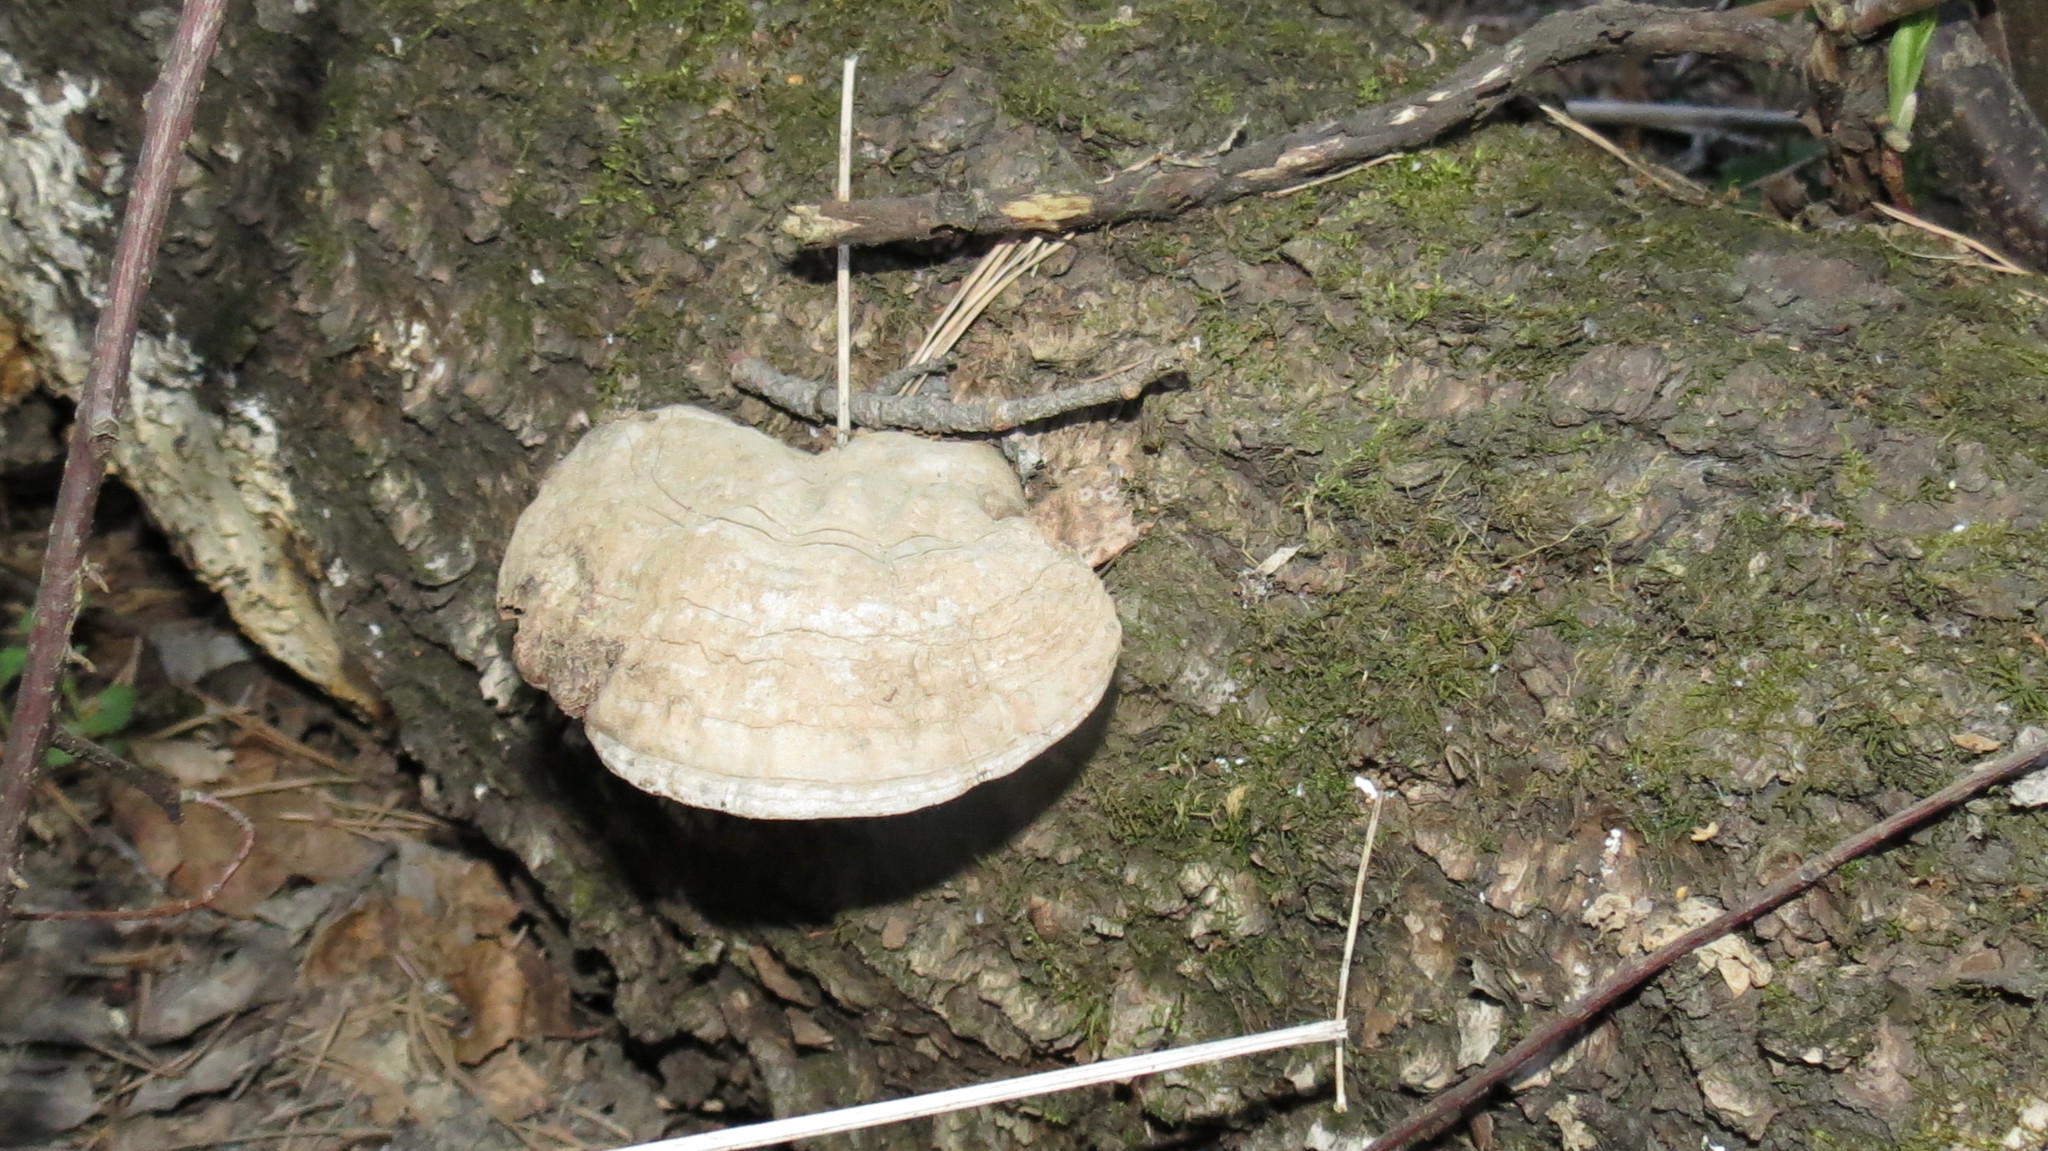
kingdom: Fungi
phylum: Basidiomycota
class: Agaricomycetes
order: Polyporales
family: Polyporaceae
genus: Ganoderma
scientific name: Ganoderma applanatum
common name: Artist's bracket
